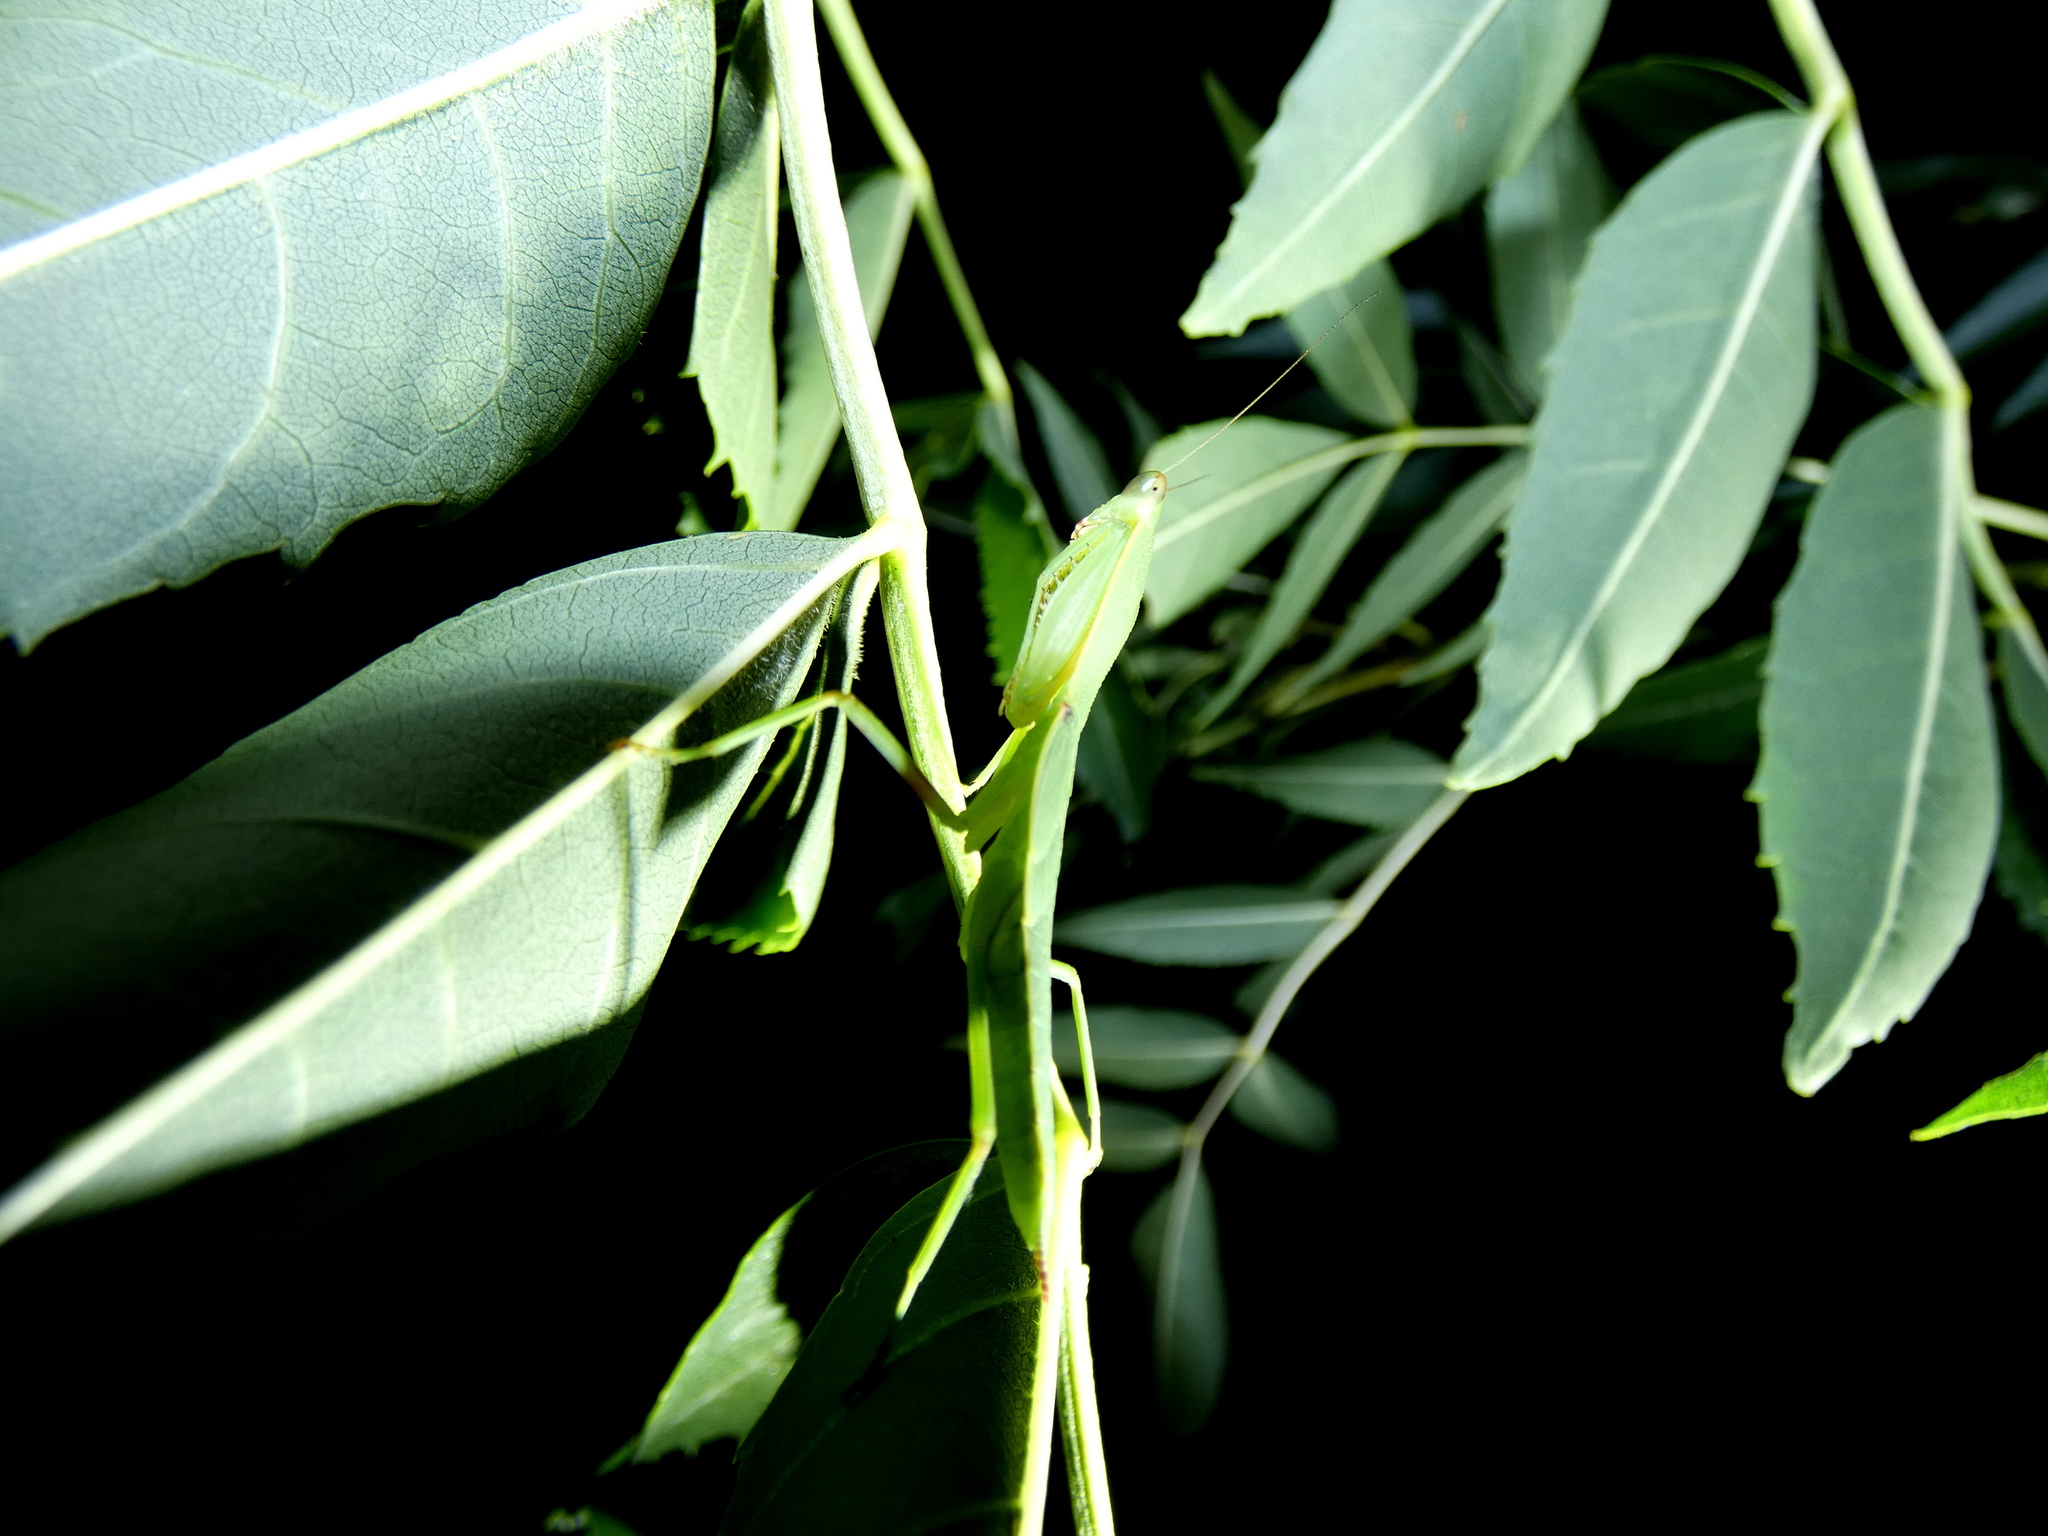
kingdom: Animalia
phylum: Arthropoda
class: Insecta
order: Mantodea
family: Mantidae
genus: Orthodera
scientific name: Orthodera ministralis
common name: Mantis
